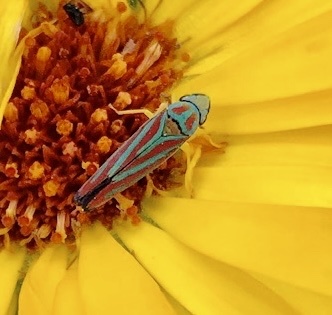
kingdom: Animalia
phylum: Arthropoda
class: Insecta
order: Hemiptera
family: Cicadellidae
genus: Graphocephala
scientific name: Graphocephala coccinea
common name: Candy-striped leafhopper
